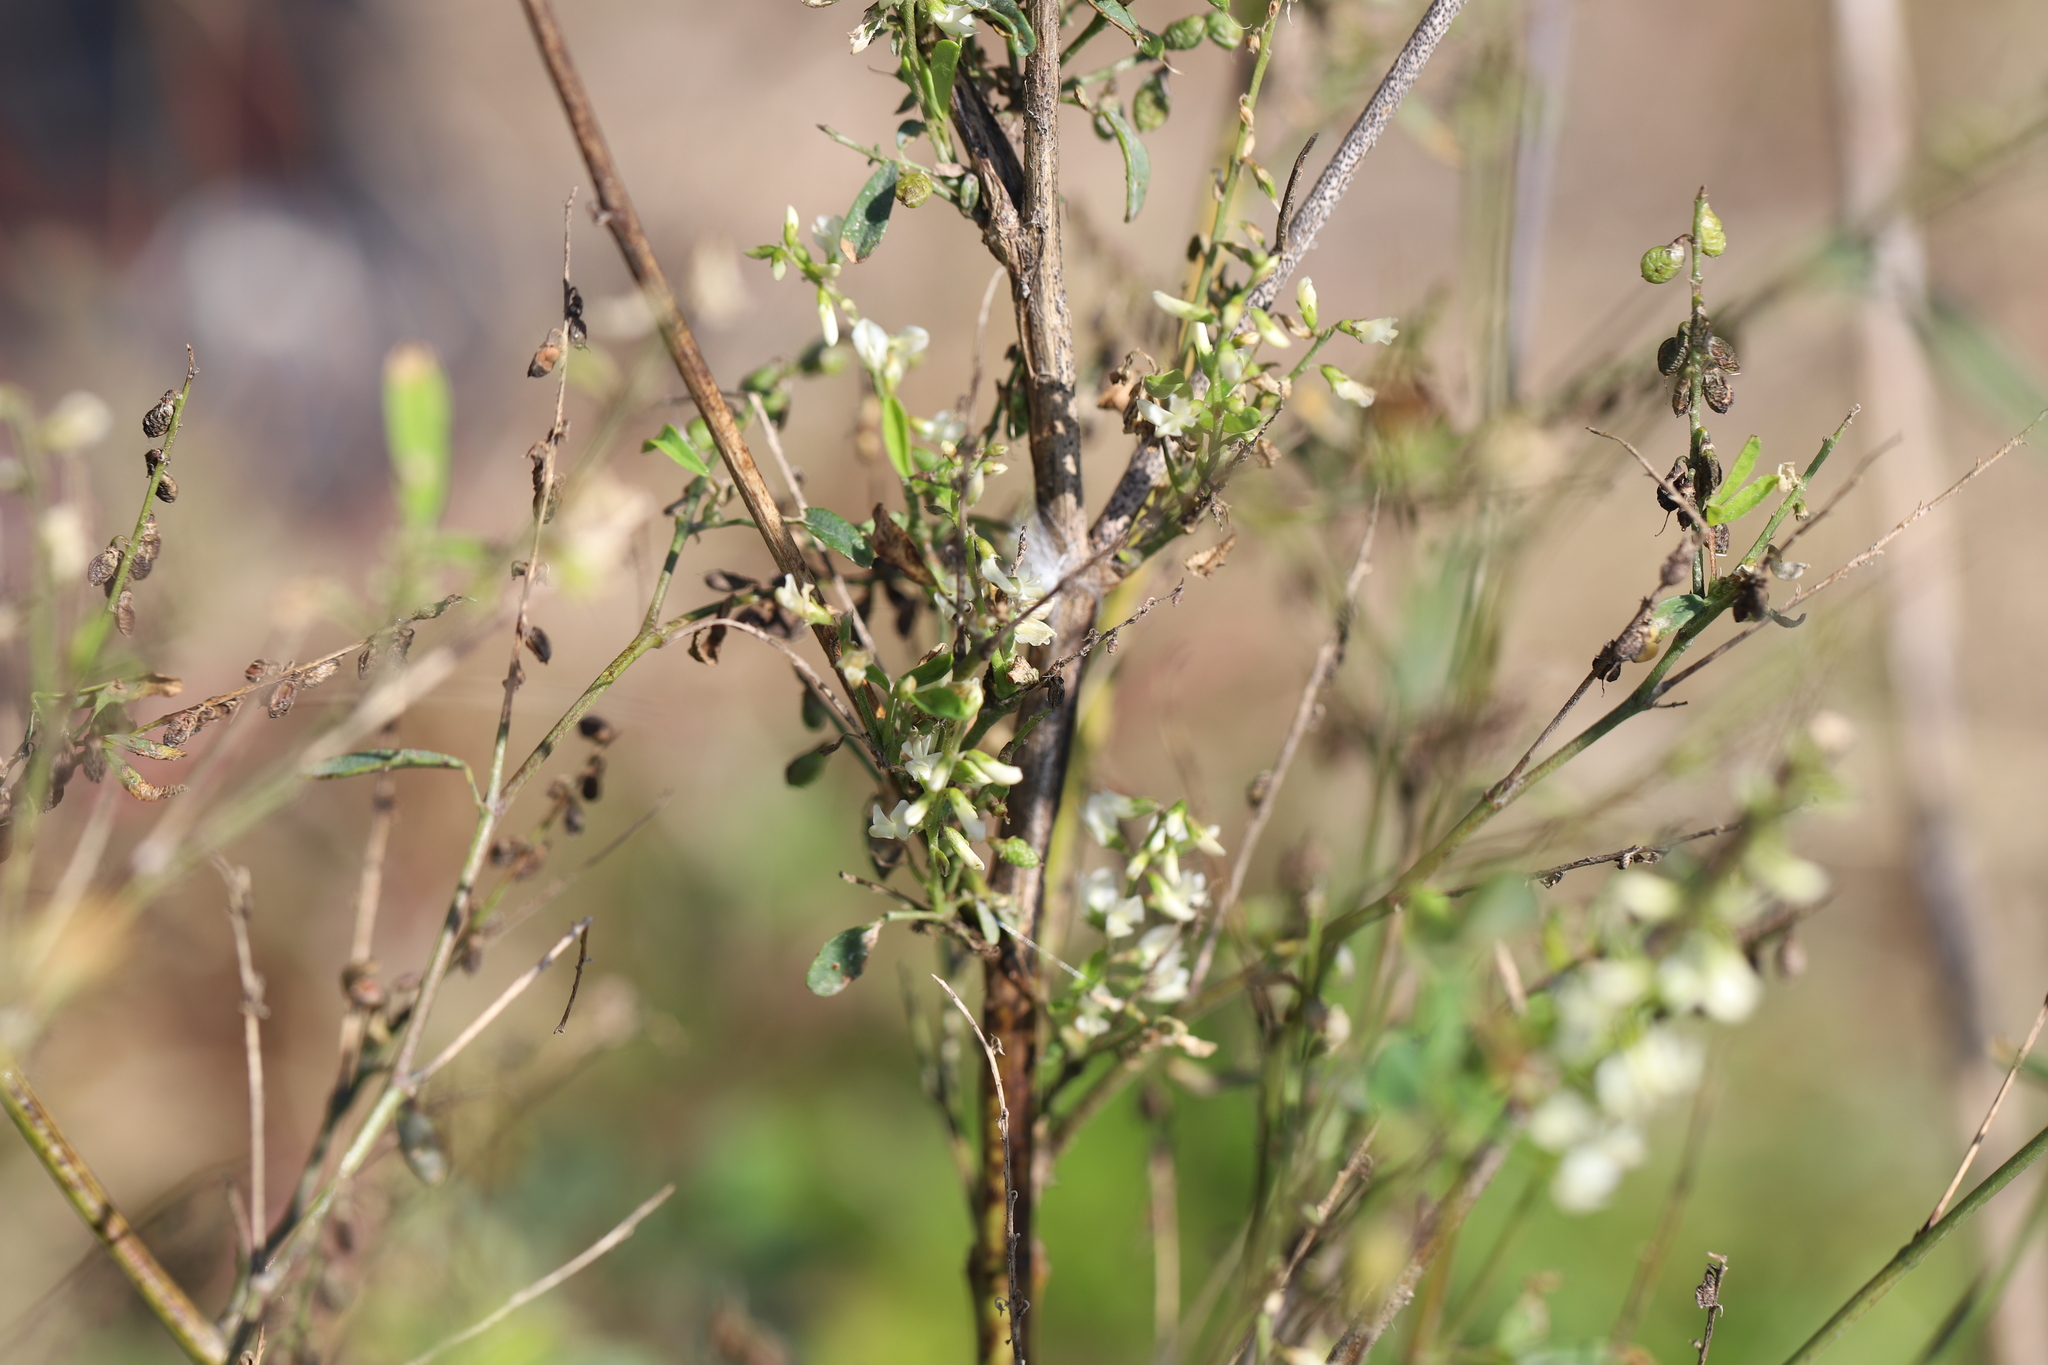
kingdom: Plantae
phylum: Tracheophyta
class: Magnoliopsida
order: Fabales
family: Fabaceae
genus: Melilotus
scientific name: Melilotus albus
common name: White melilot
